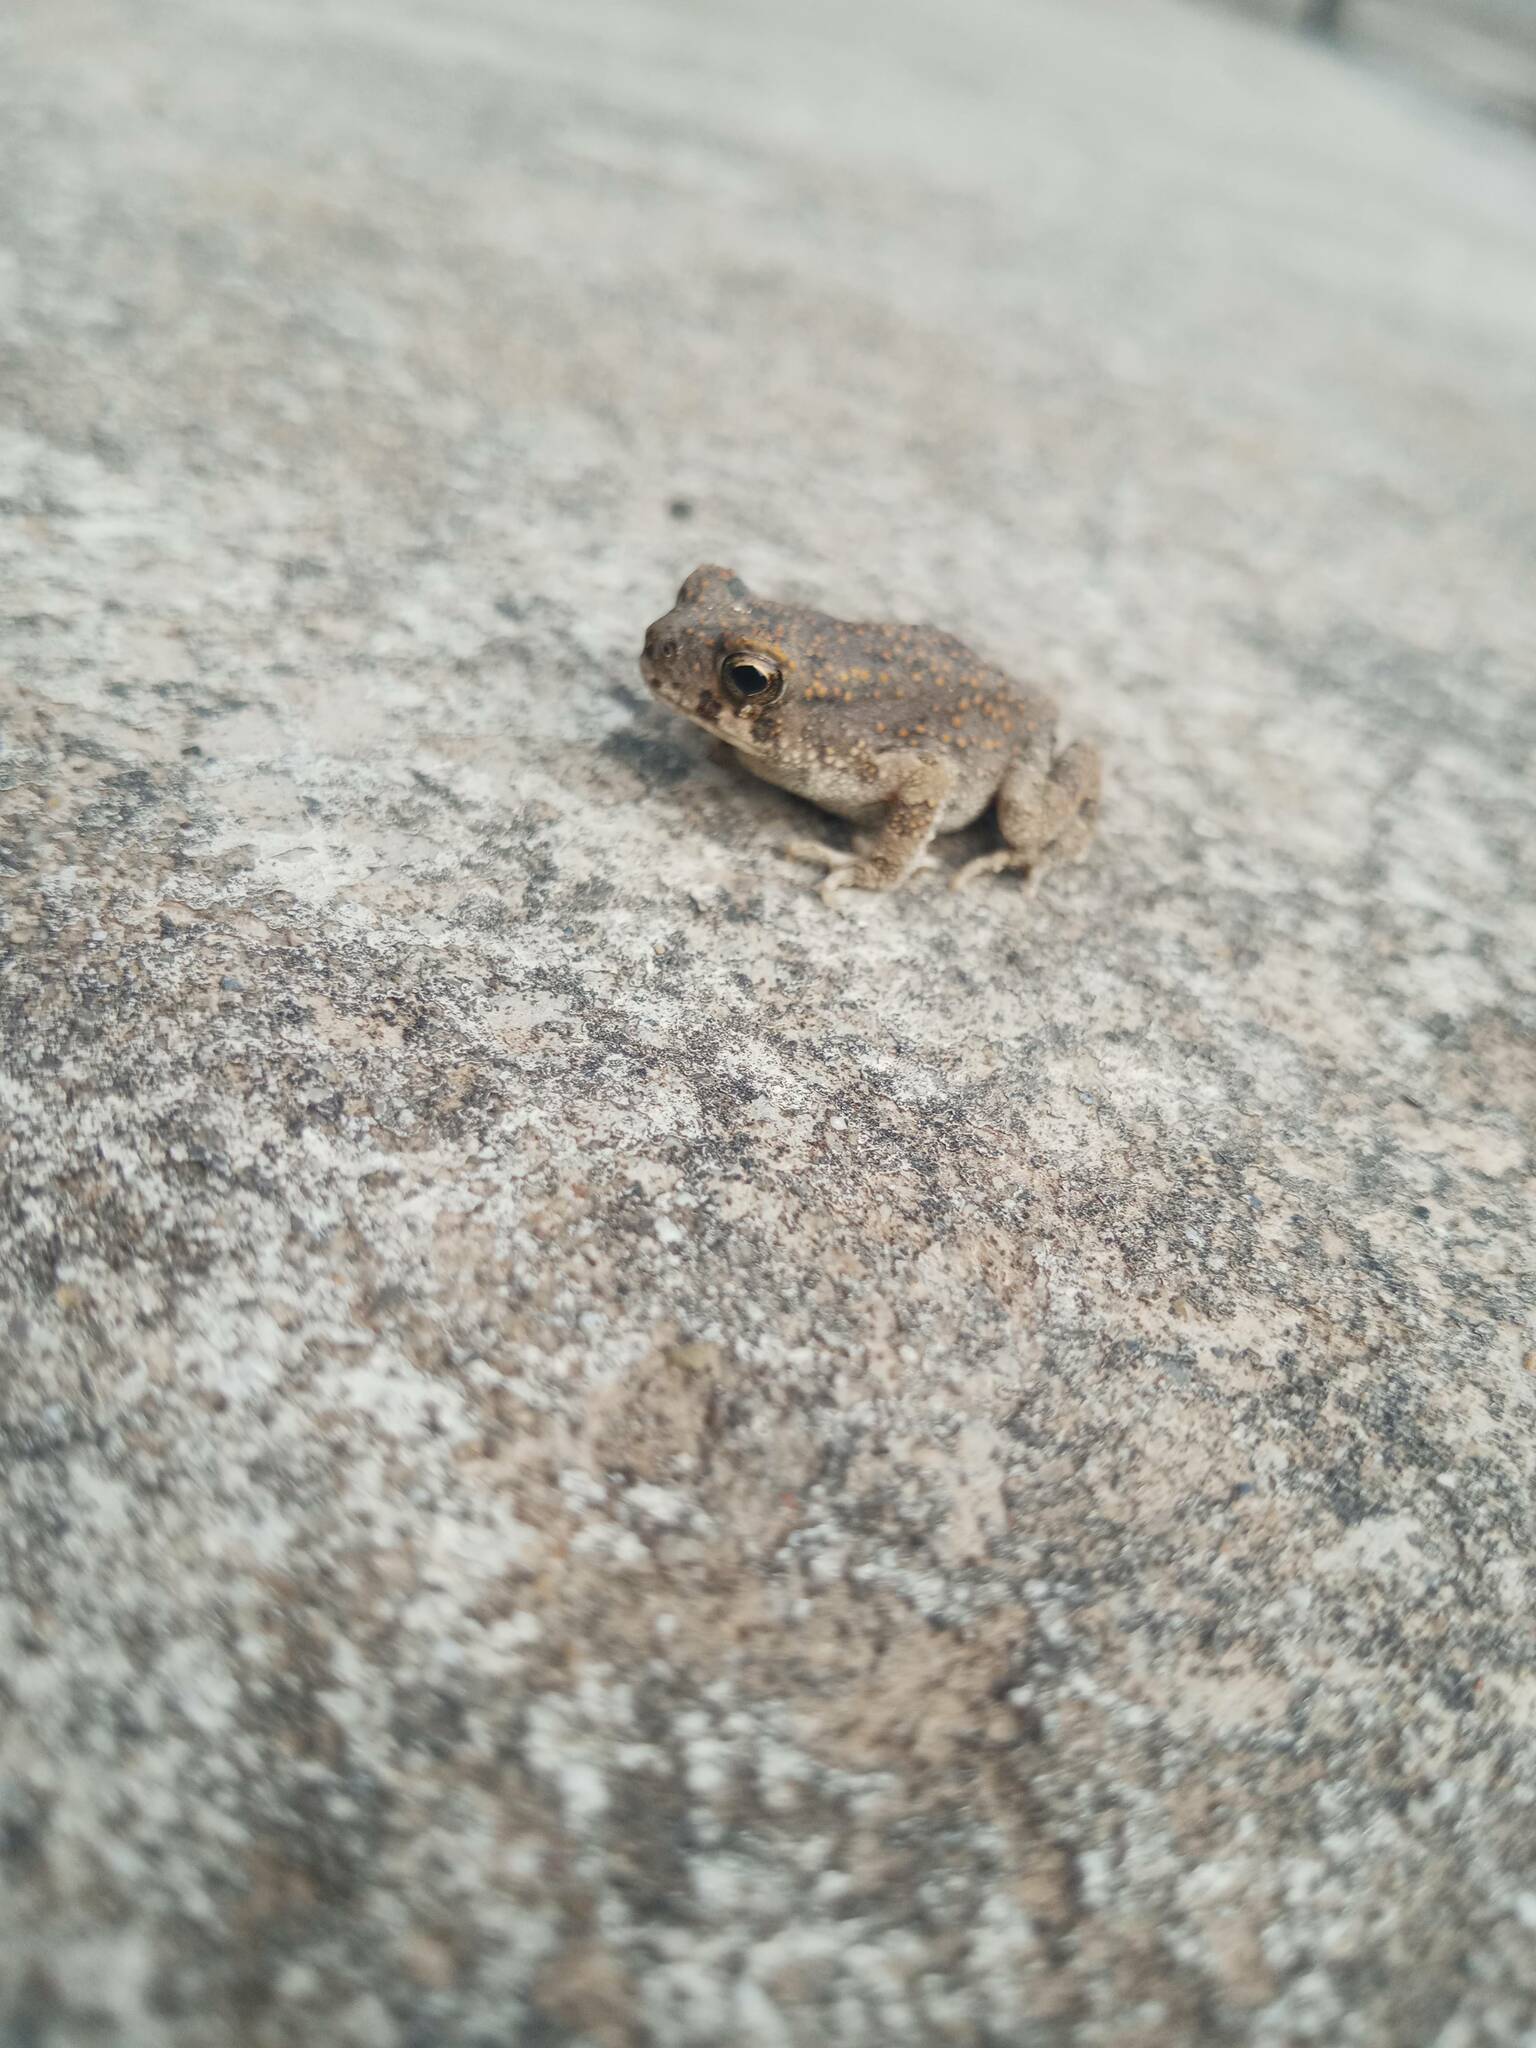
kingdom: Animalia
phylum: Chordata
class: Amphibia
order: Anura
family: Bufonidae
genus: Sclerophrys
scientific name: Sclerophrys mauritanica
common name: Berber toad
